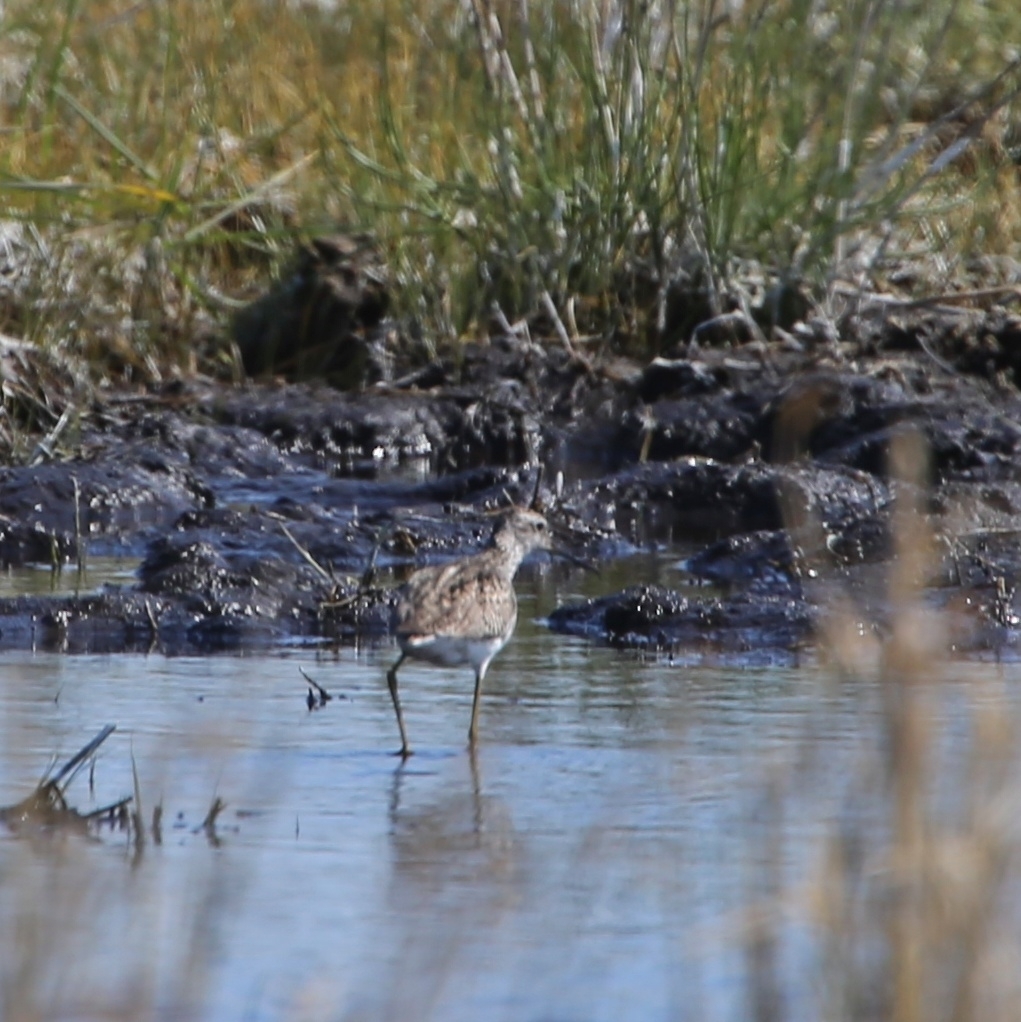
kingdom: Animalia
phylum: Chordata
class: Aves
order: Charadriiformes
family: Scolopacidae
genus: Tringa
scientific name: Tringa stagnatilis
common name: Marsh sandpiper
